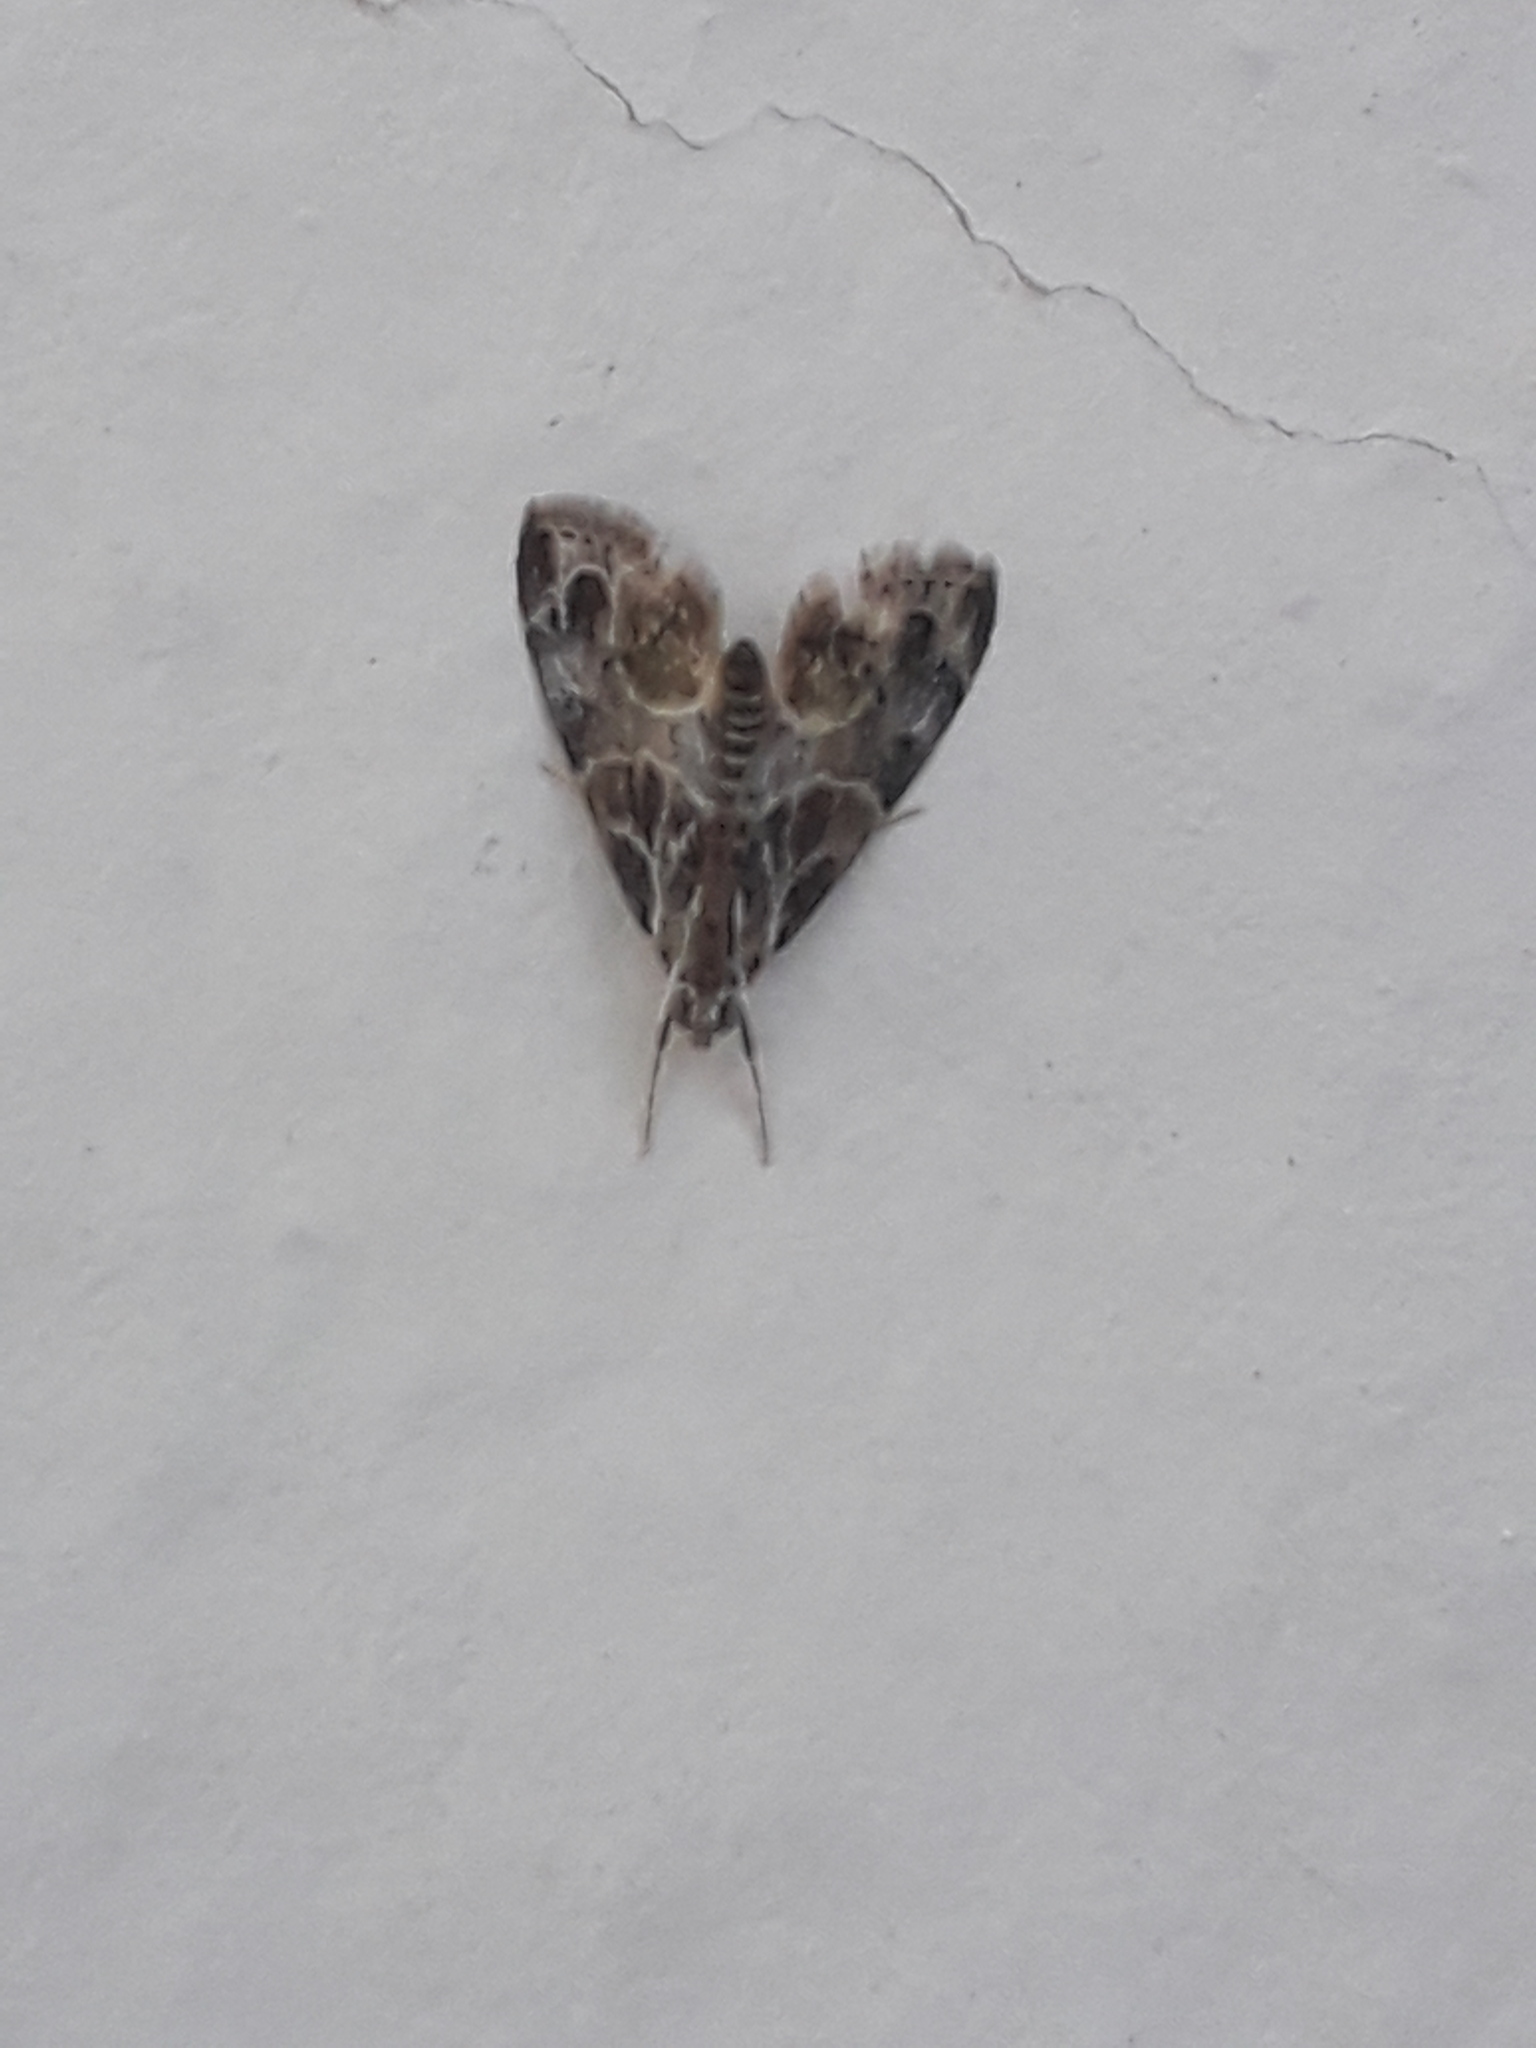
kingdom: Animalia
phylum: Arthropoda
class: Insecta
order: Lepidoptera
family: Crambidae
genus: Eupoca
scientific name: Eupoca bifascialis
